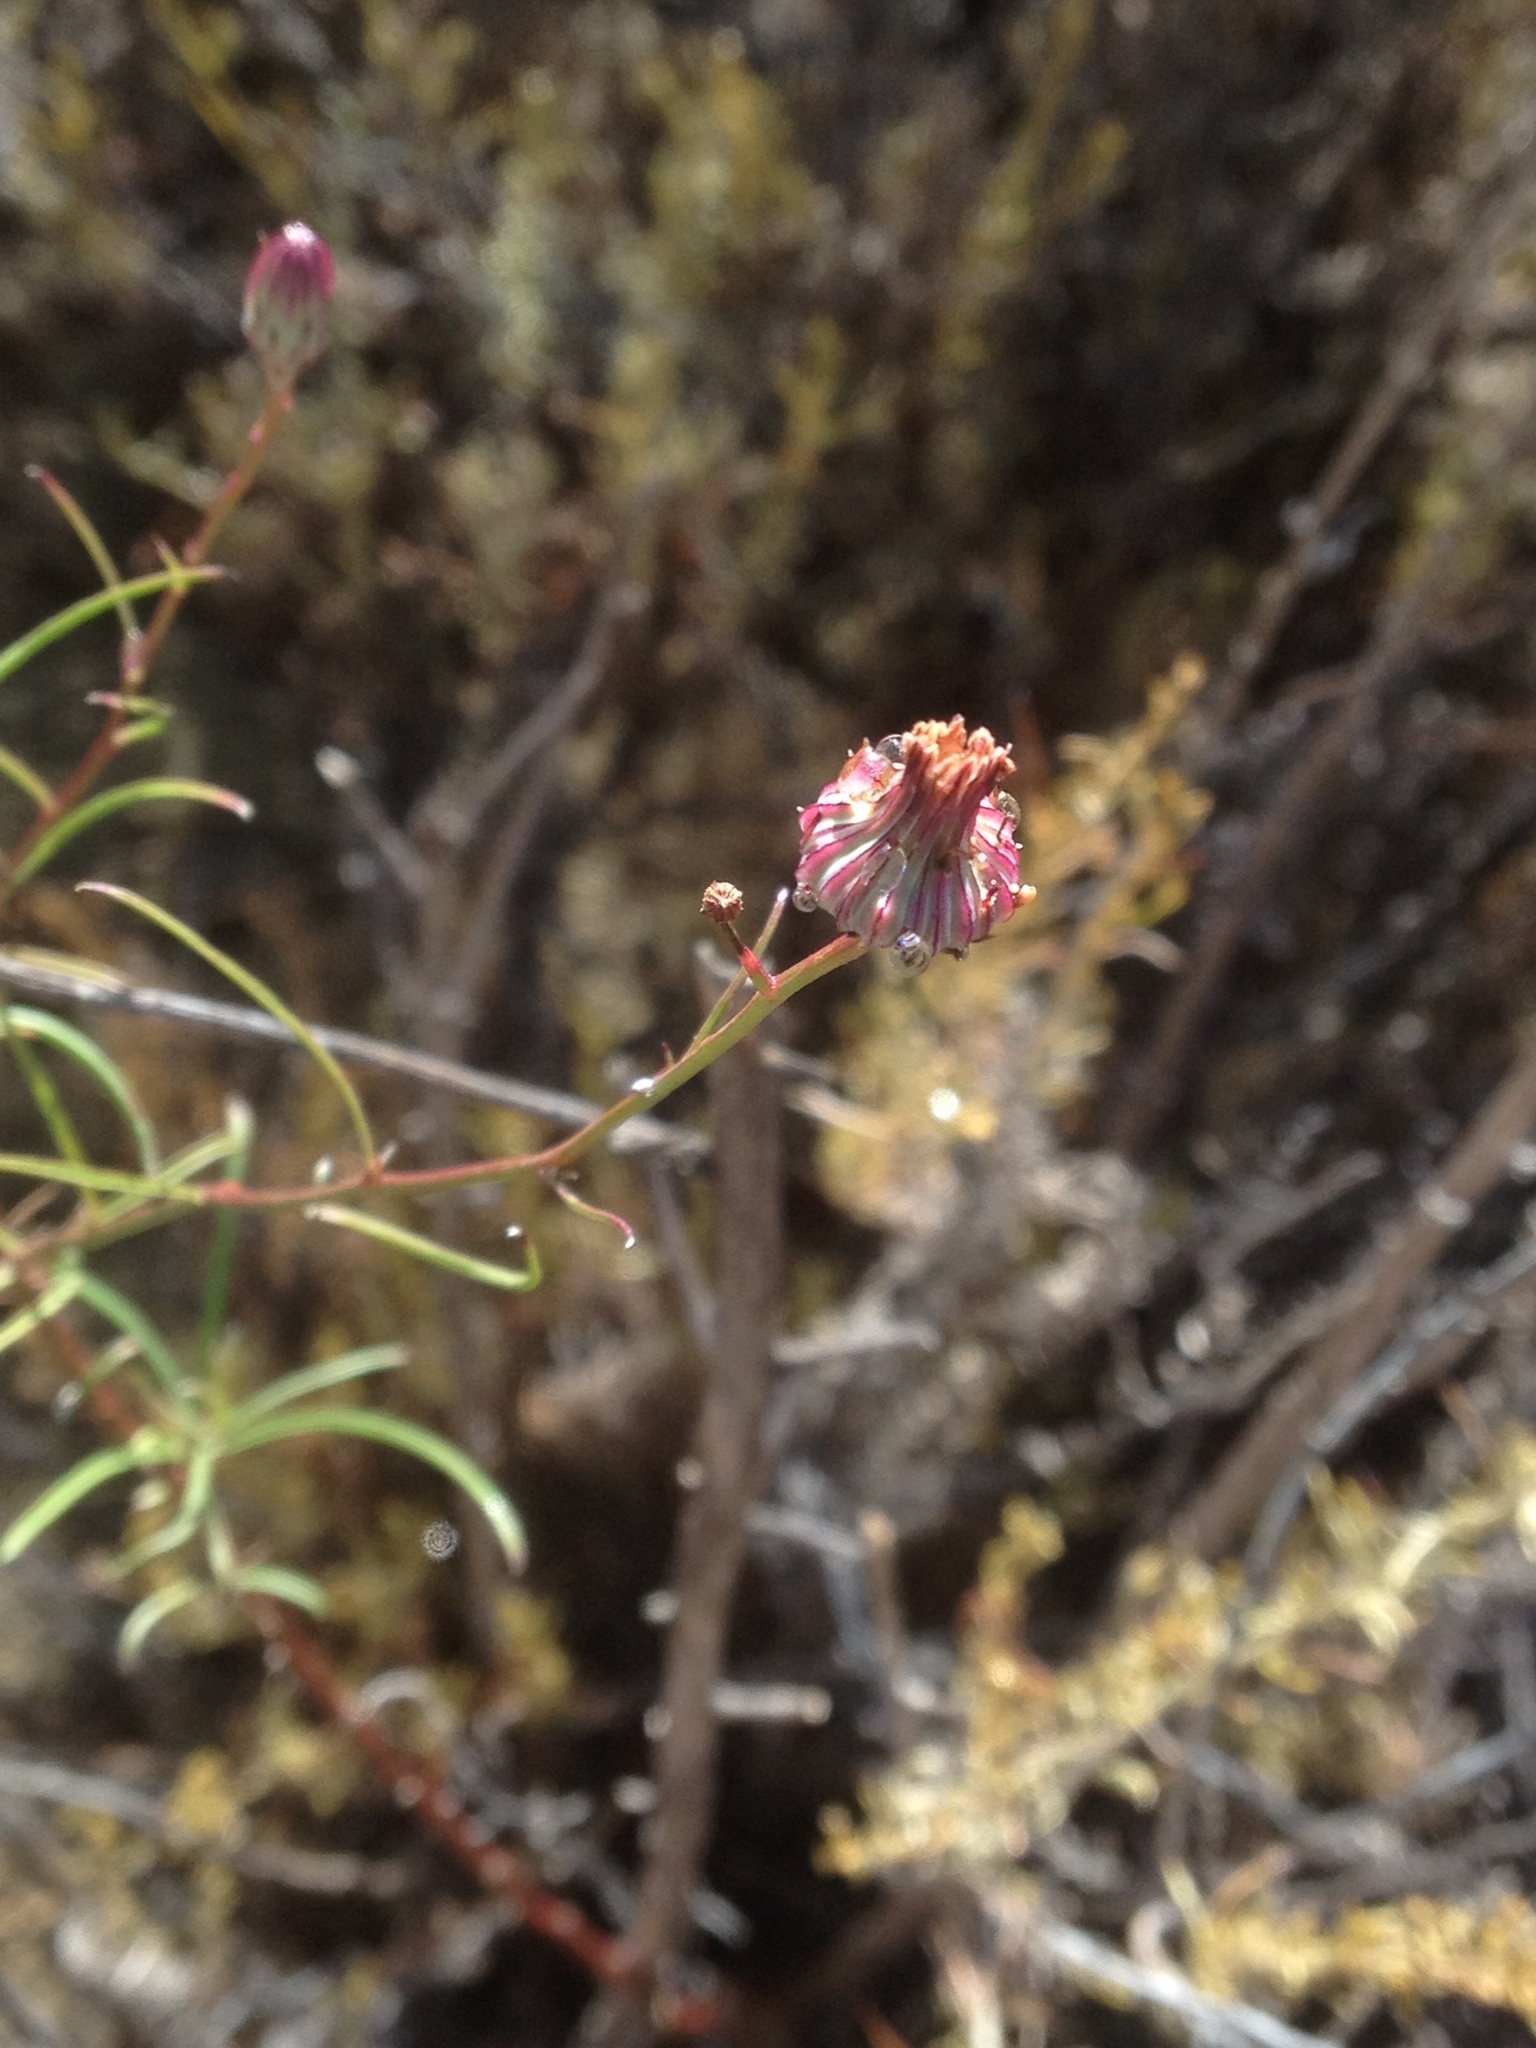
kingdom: Plantae
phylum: Tracheophyta
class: Magnoliopsida
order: Asterales
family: Asteraceae
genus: Malacothrix
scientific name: Malacothrix saxatilis
